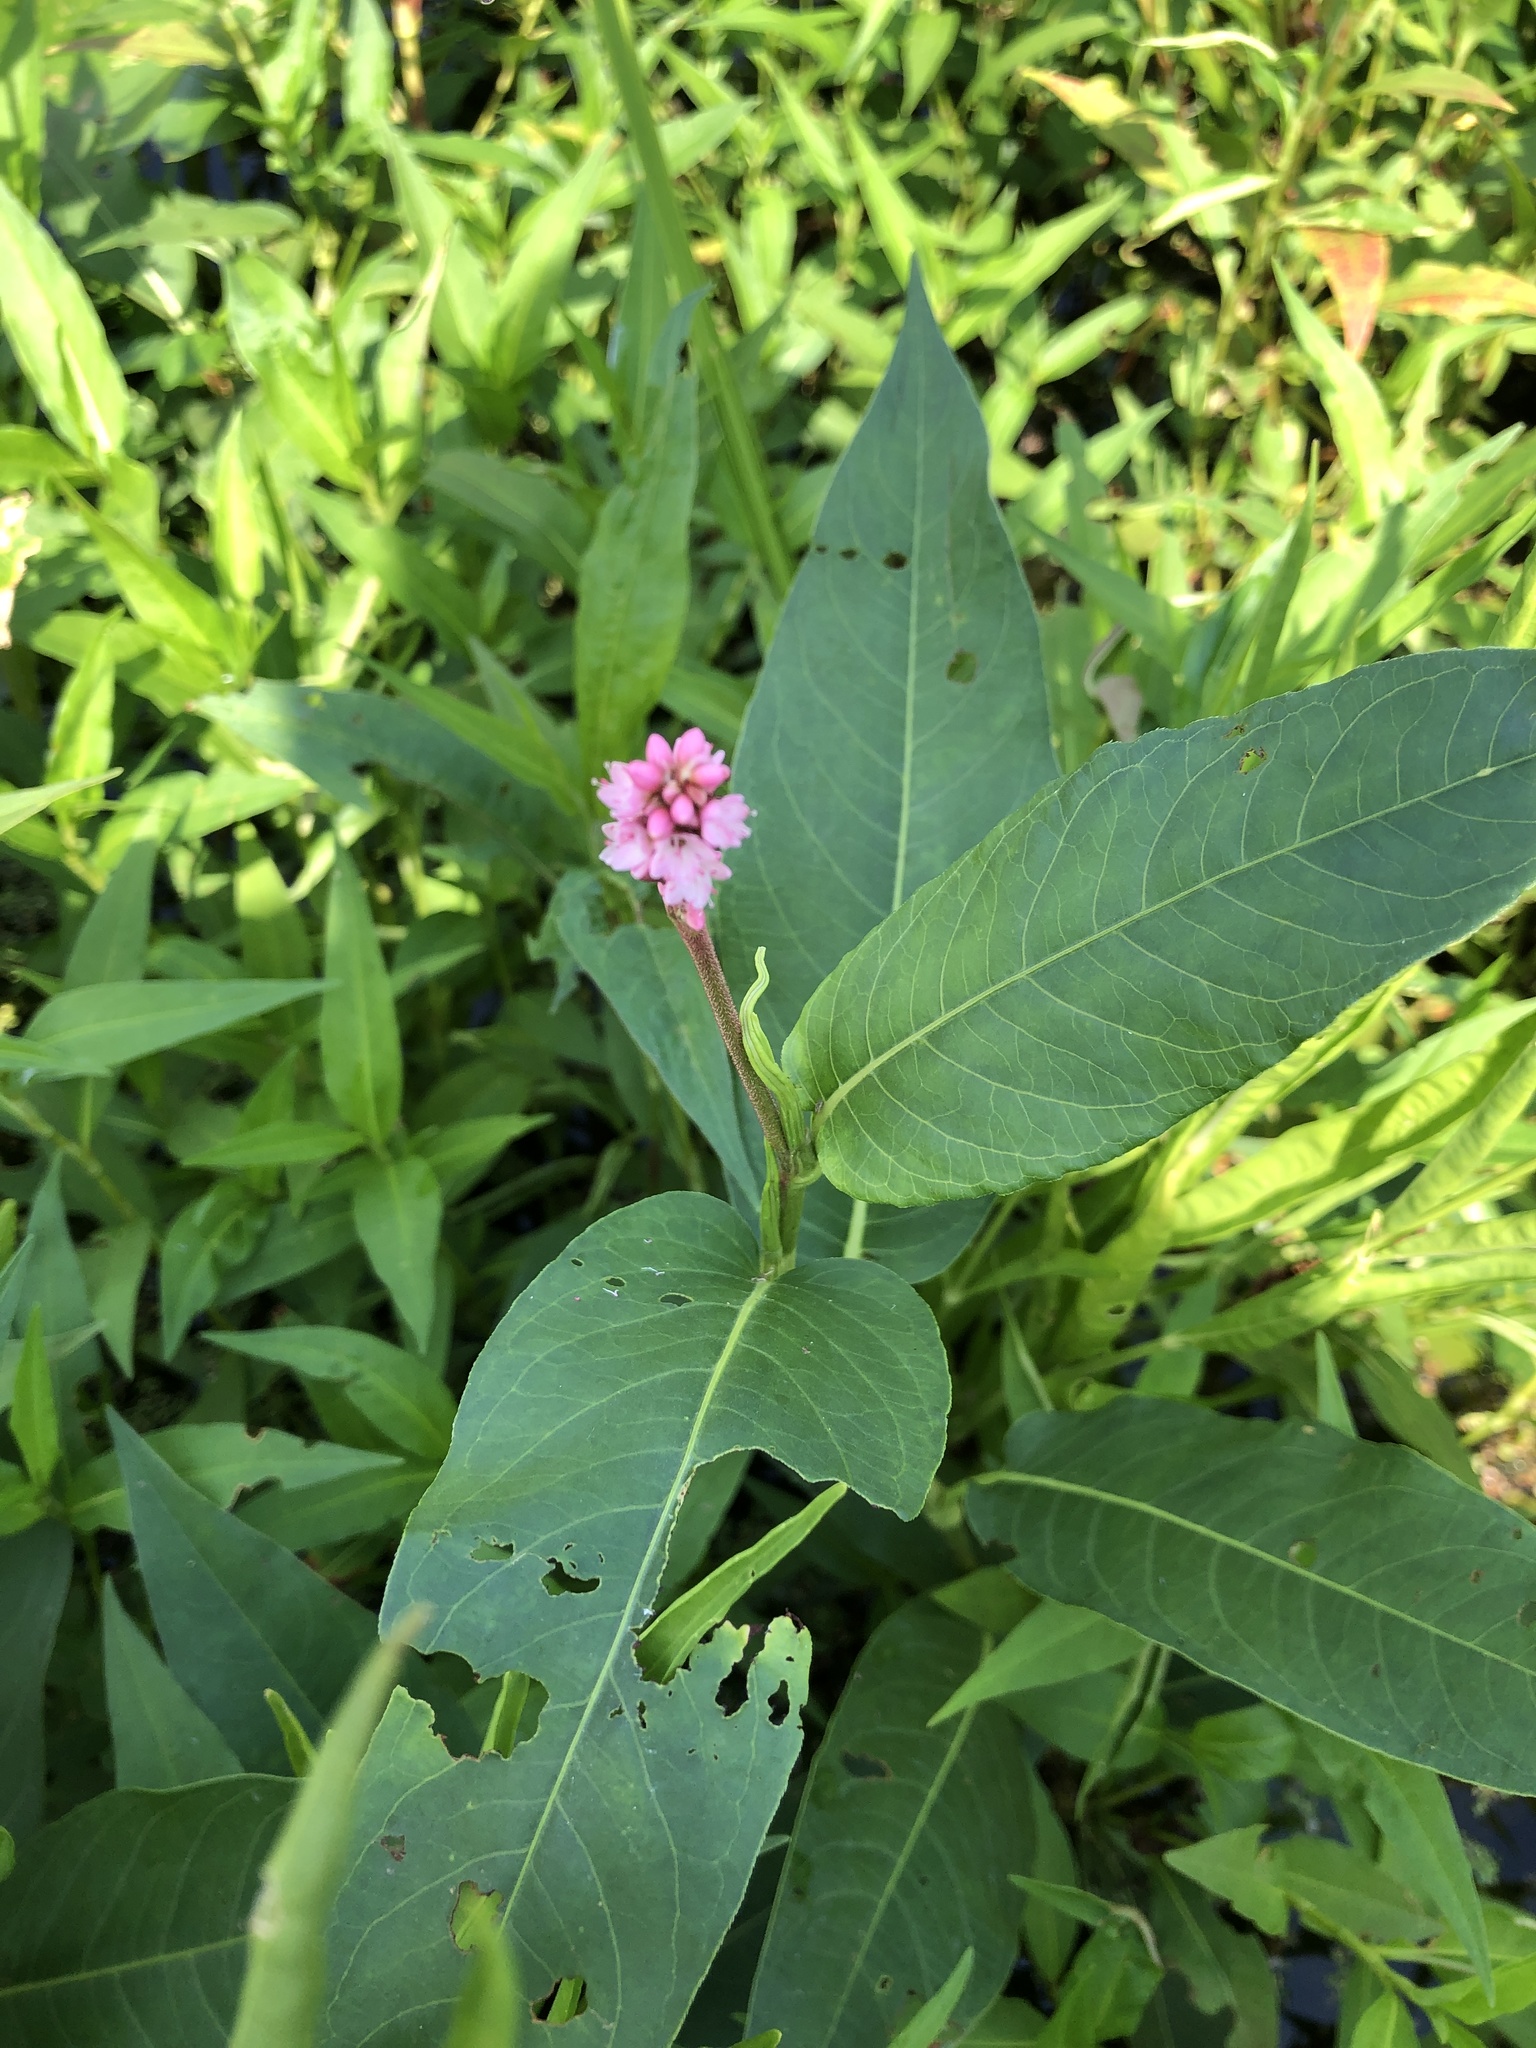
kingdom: Plantae
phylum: Tracheophyta
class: Magnoliopsida
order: Caryophyllales
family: Polygonaceae
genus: Persicaria
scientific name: Persicaria amphibia
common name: Amphibious bistort
